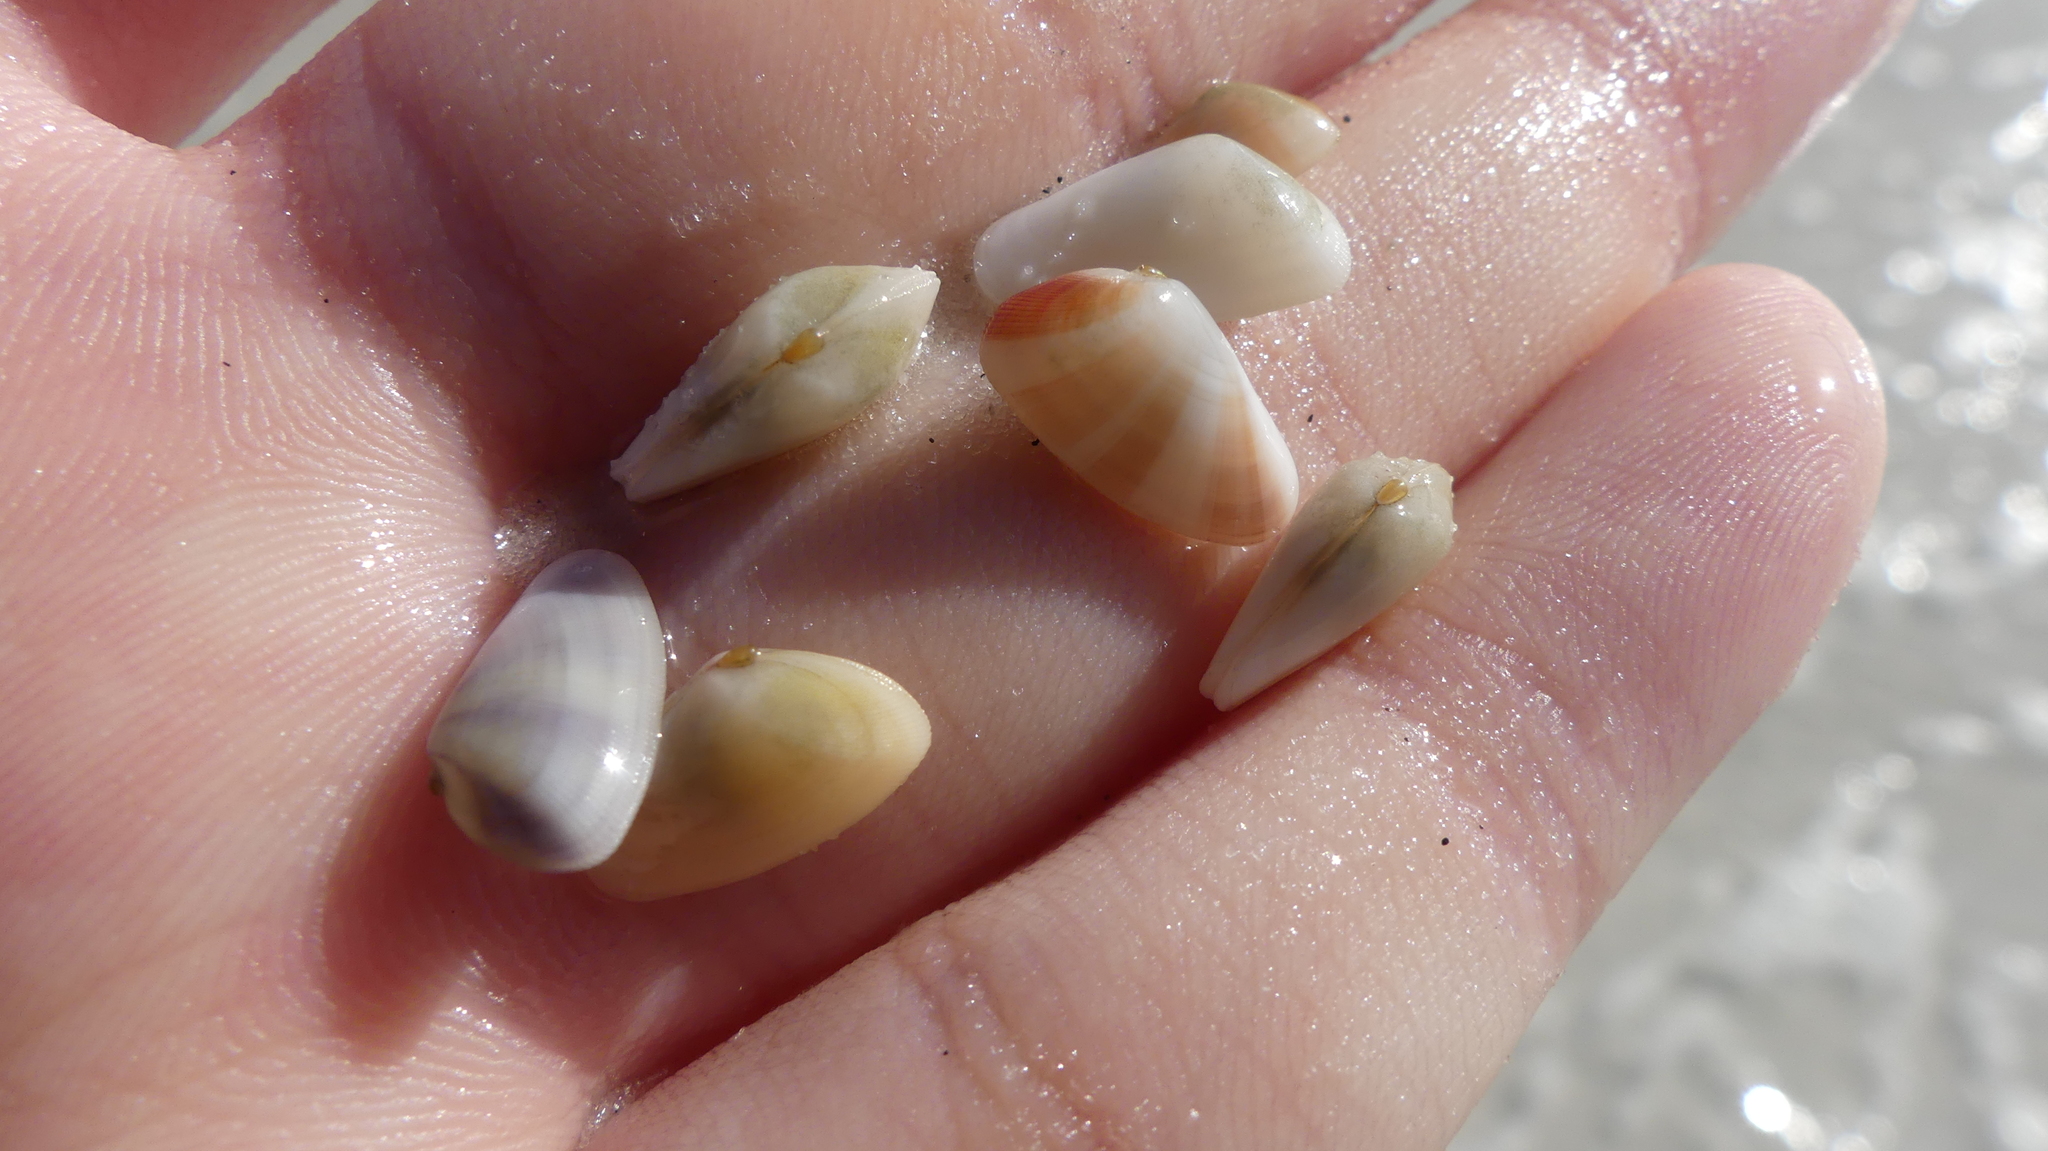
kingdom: Animalia
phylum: Mollusca
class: Bivalvia
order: Cardiida
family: Donacidae
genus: Donax
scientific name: Donax variabilis
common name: Butterfly shell
